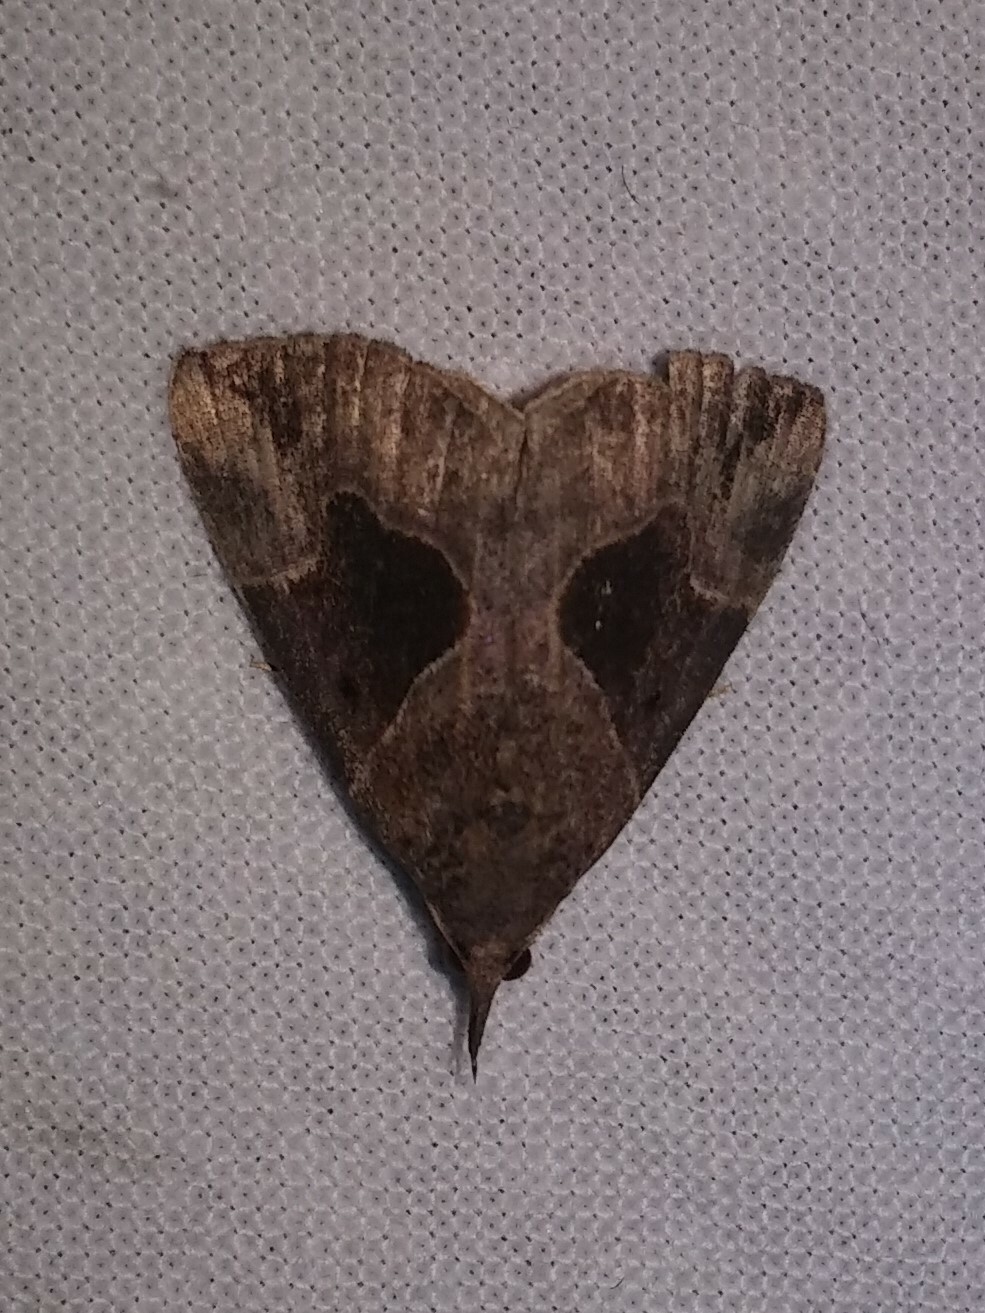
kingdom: Animalia
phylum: Arthropoda
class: Insecta
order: Lepidoptera
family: Erebidae
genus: Hypena
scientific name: Hypena manalis
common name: Flowing-line bomolocha moth
